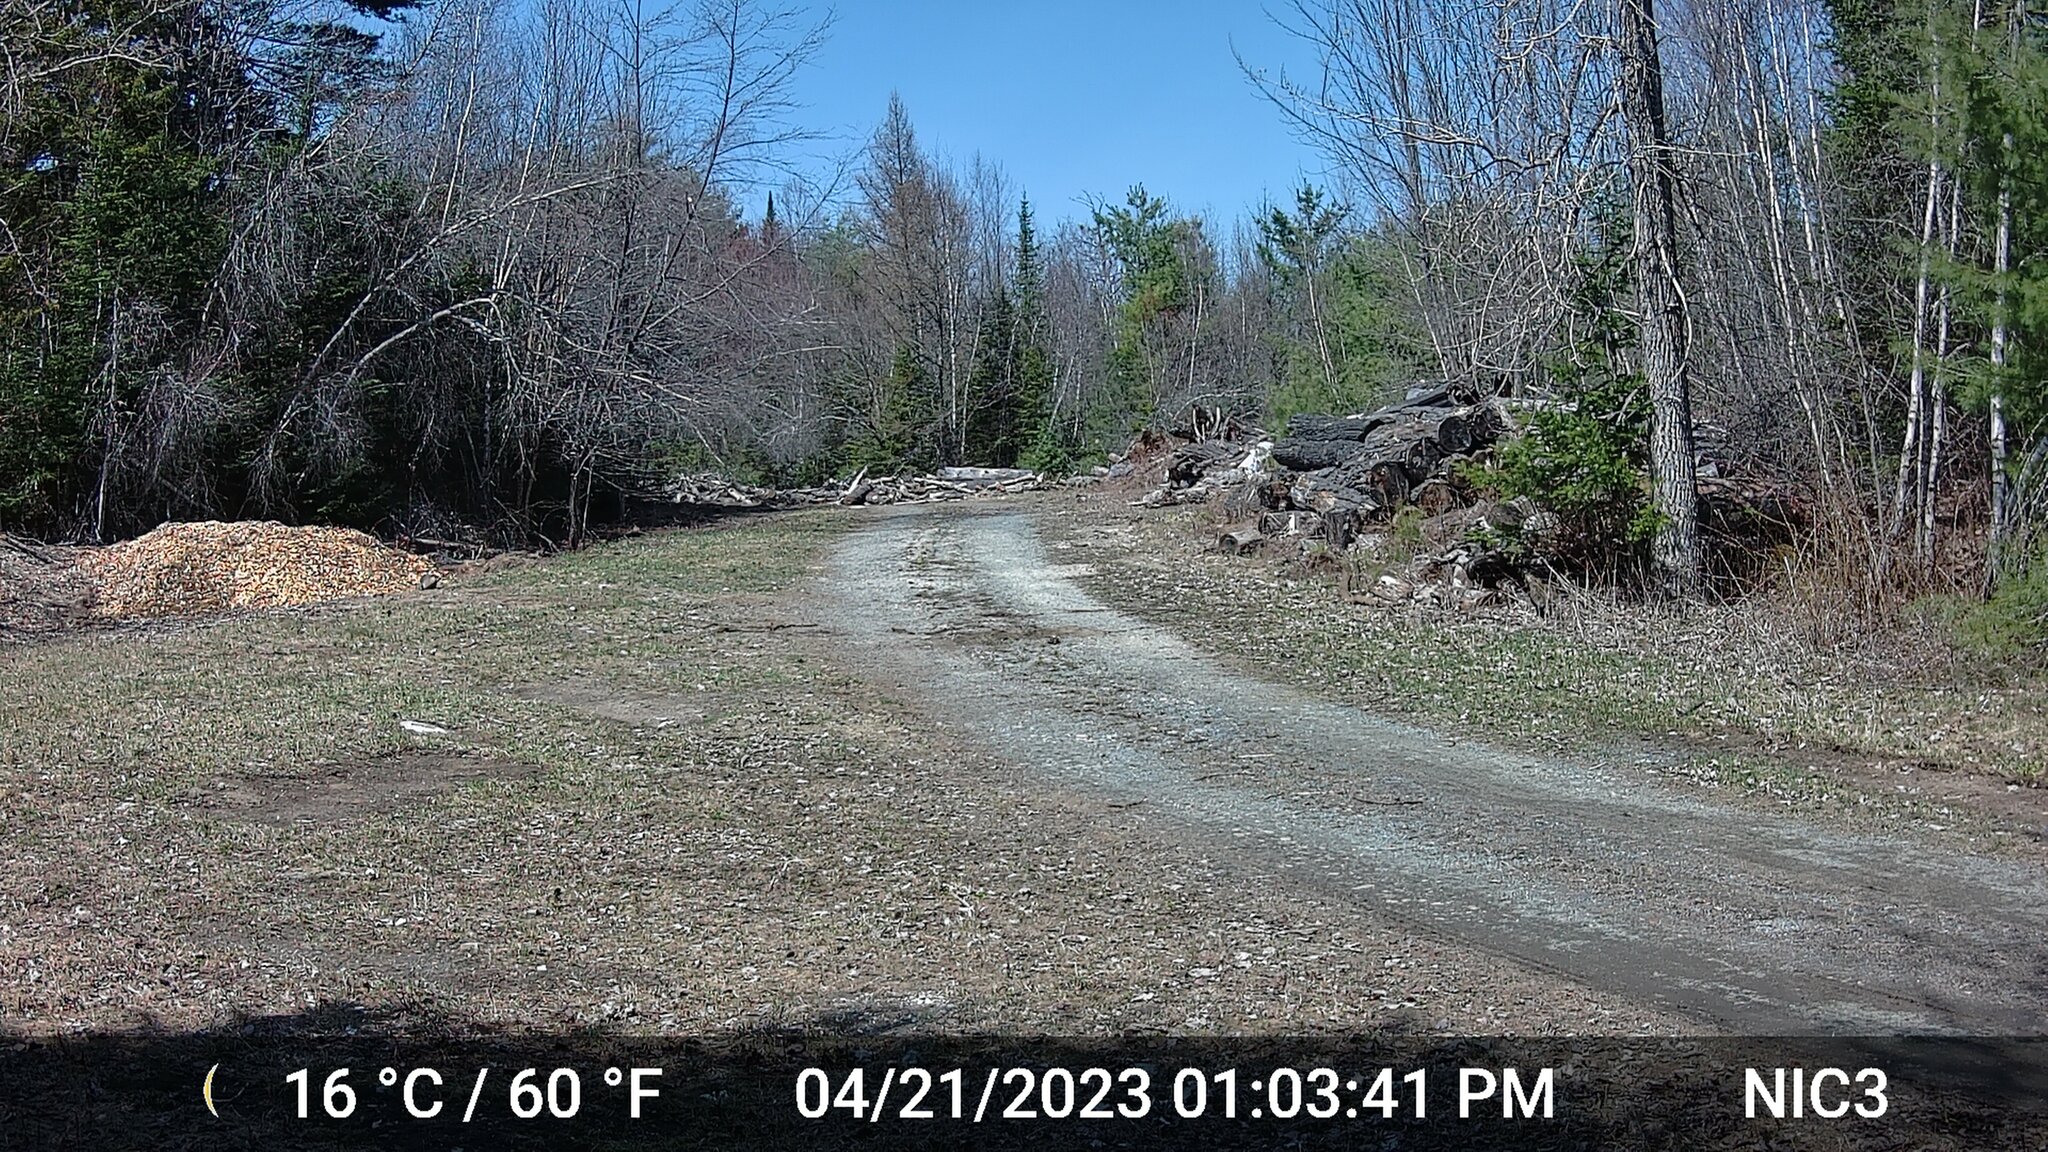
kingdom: Animalia
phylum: Chordata
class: Mammalia
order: Rodentia
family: Sciuridae
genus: Marmota
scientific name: Marmota monax
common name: Groundhog
